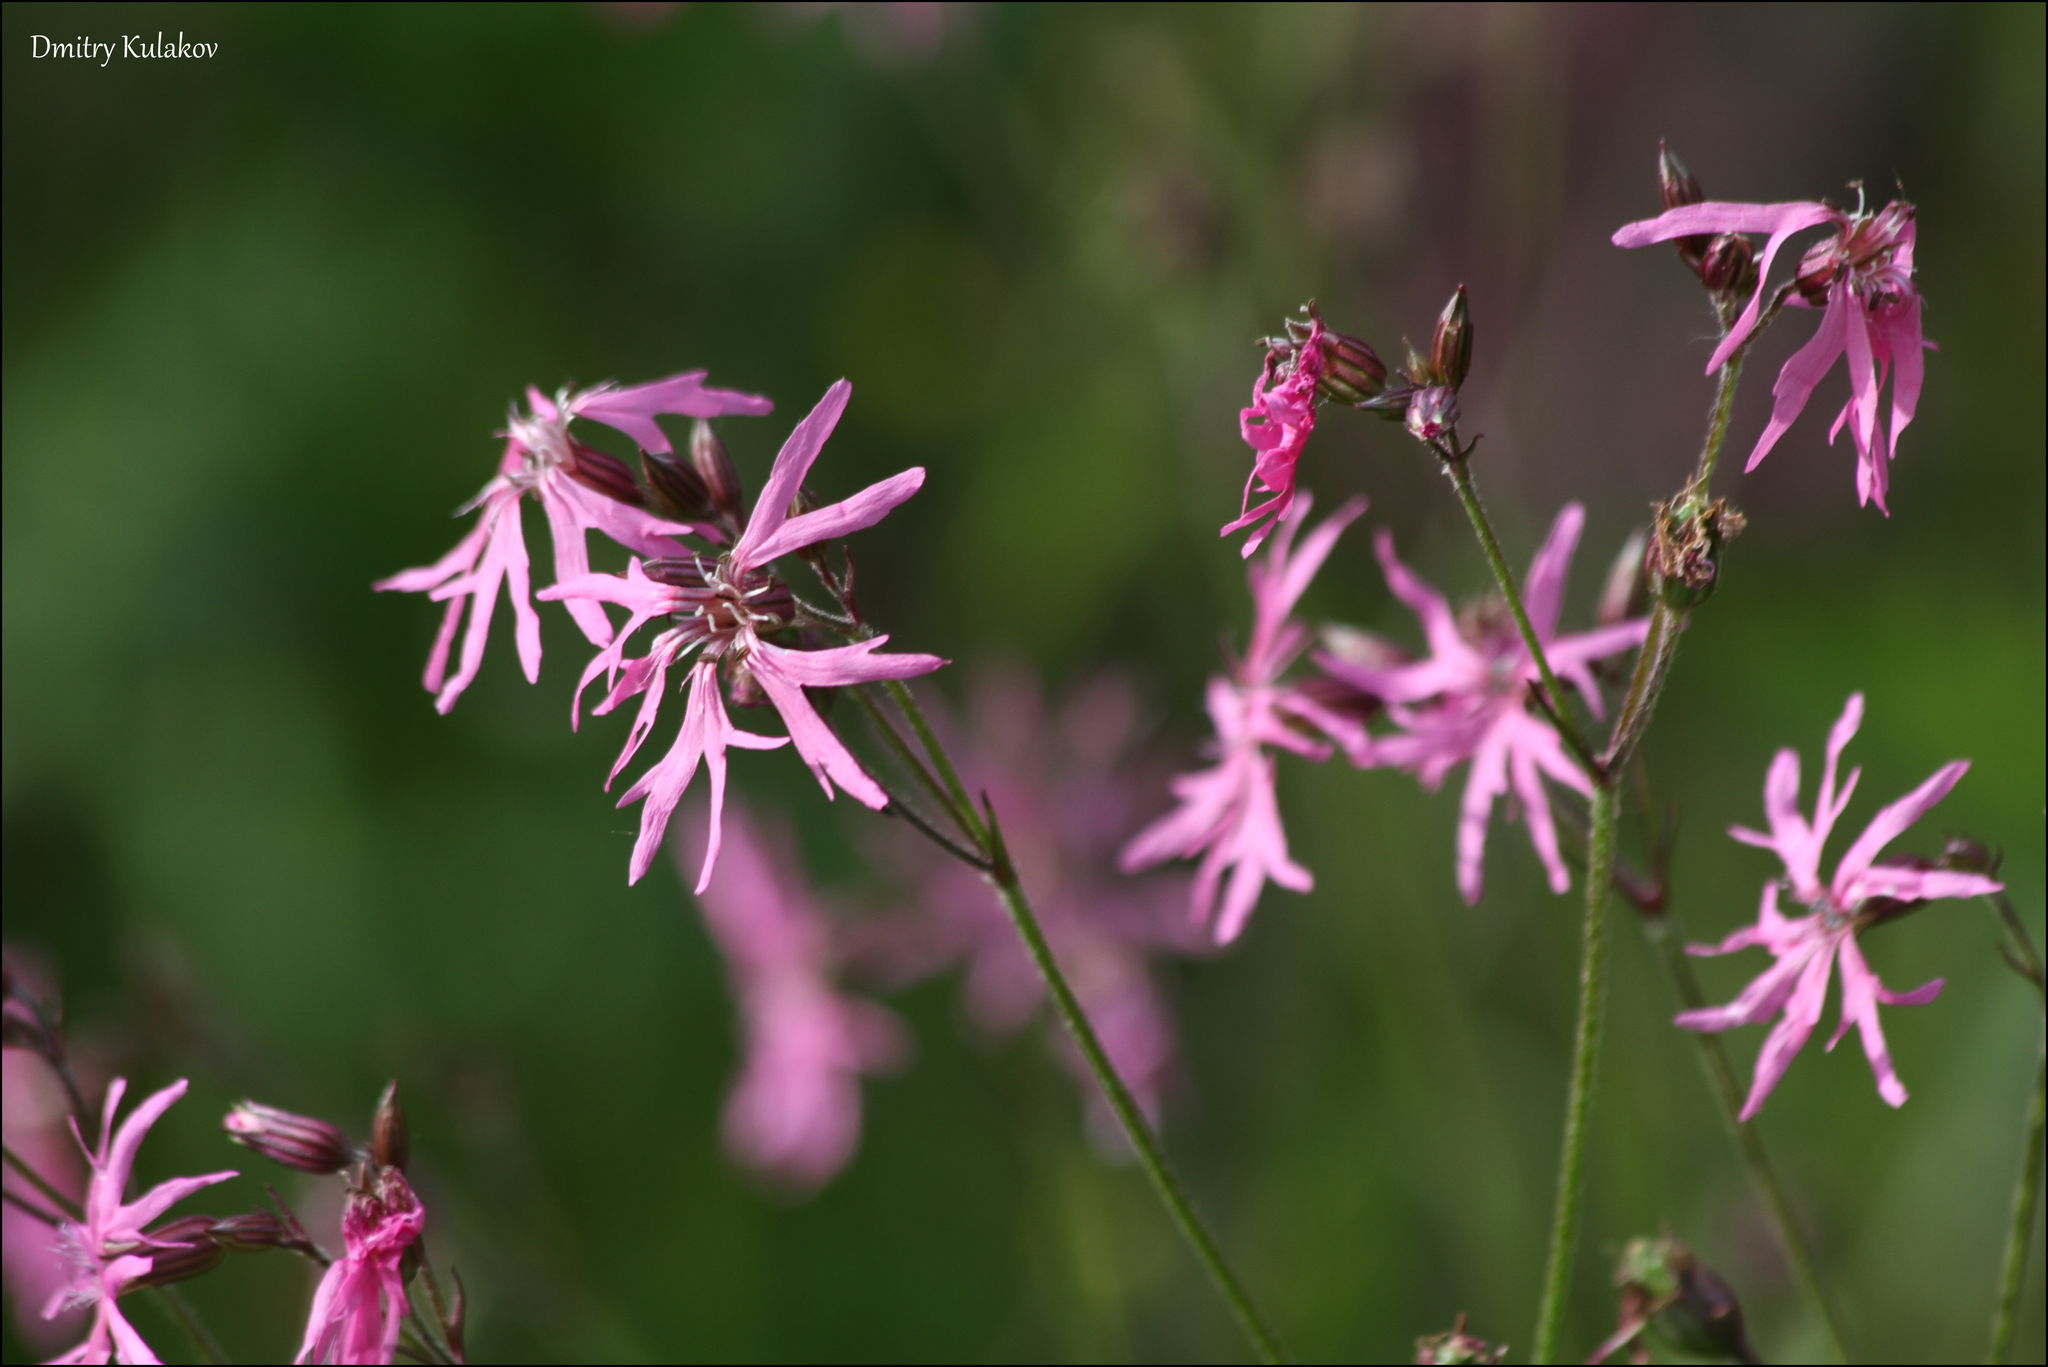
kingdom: Plantae
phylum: Tracheophyta
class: Magnoliopsida
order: Caryophyllales
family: Caryophyllaceae
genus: Silene
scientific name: Silene flos-cuculi
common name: Ragged-robin
